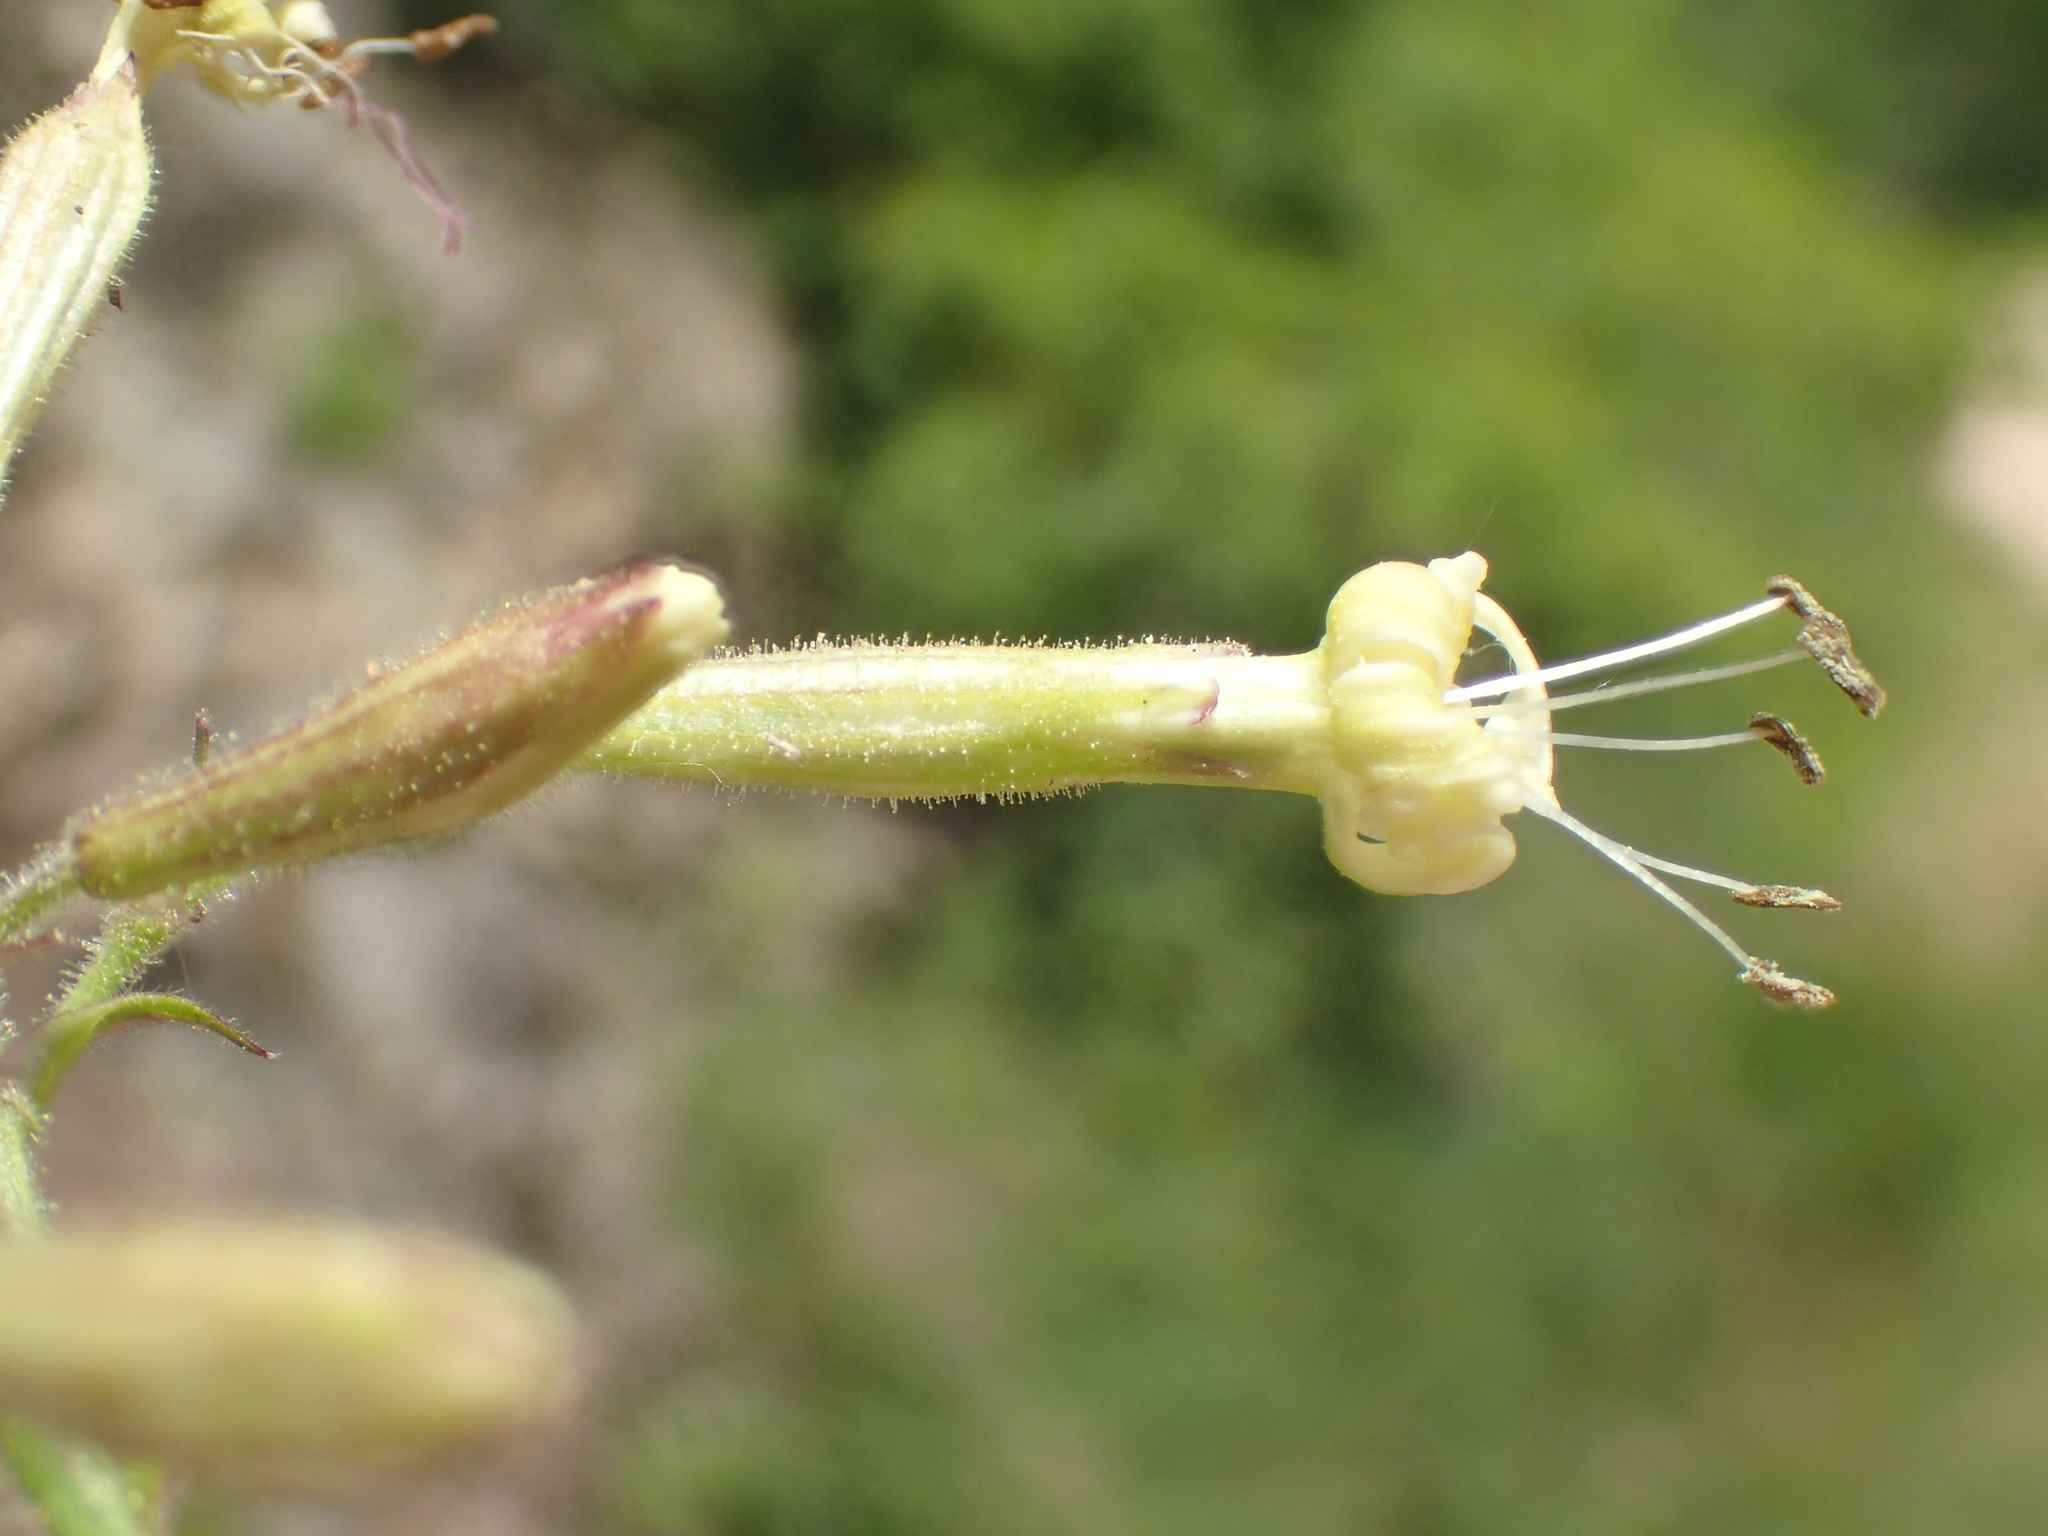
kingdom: Plantae
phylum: Tracheophyta
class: Magnoliopsida
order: Caryophyllales
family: Caryophyllaceae
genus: Silene
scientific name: Silene nutans
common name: Nottingham catchfly
